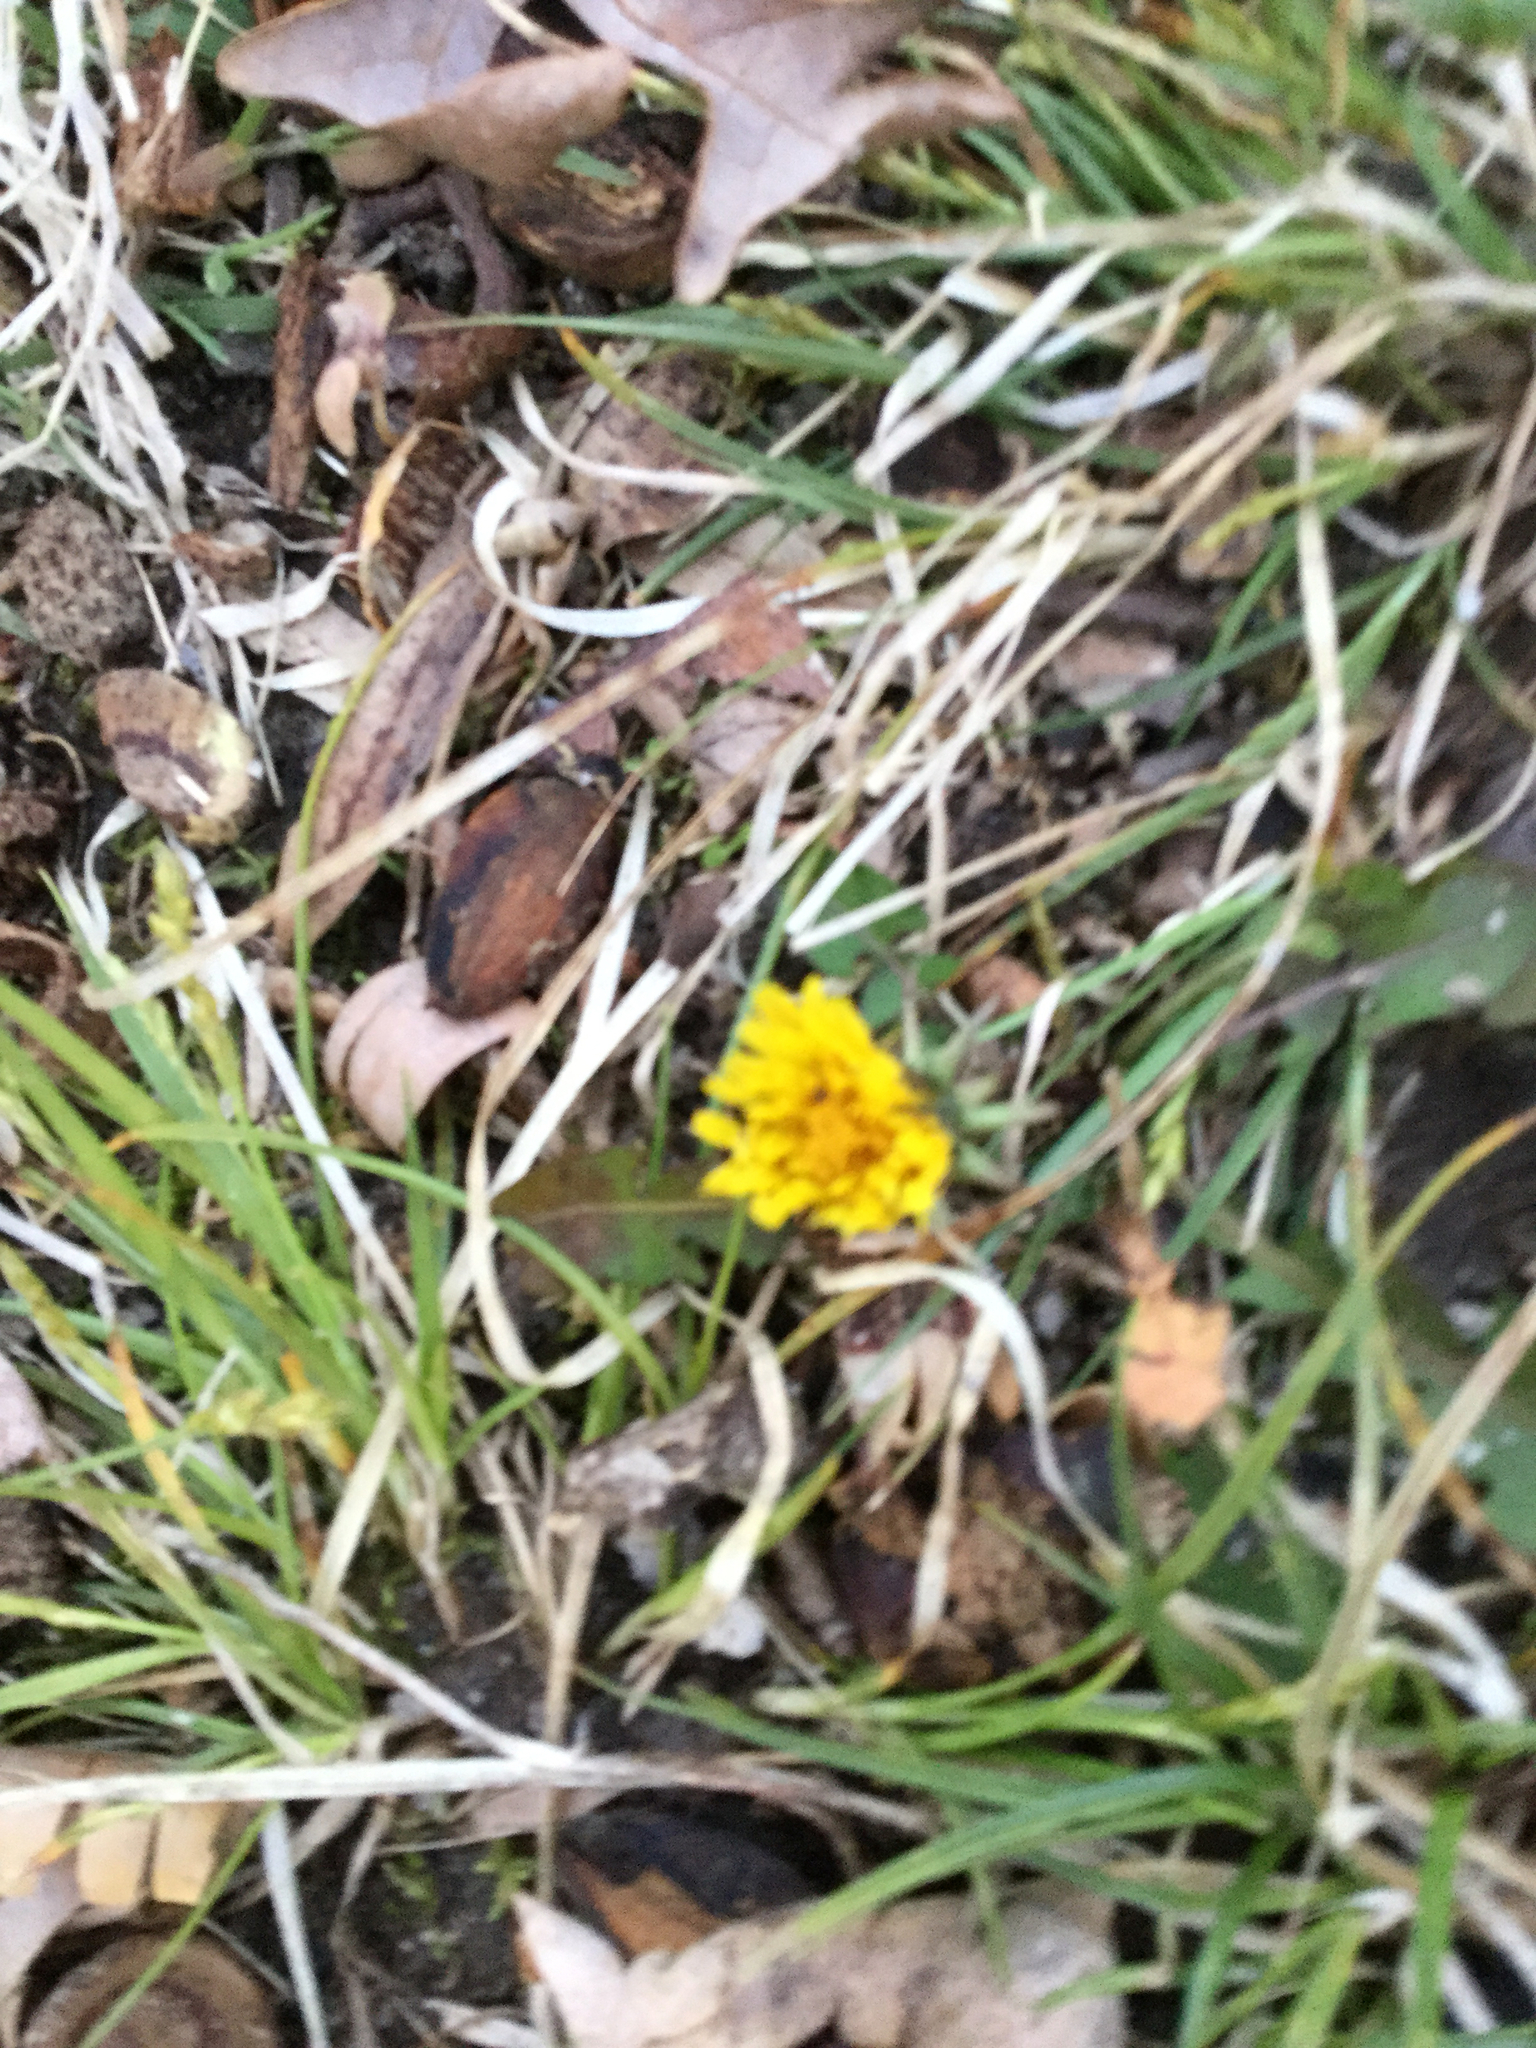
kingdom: Plantae
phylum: Tracheophyta
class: Magnoliopsida
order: Asterales
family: Asteraceae
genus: Taraxacum
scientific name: Taraxacum officinale
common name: Common dandelion
